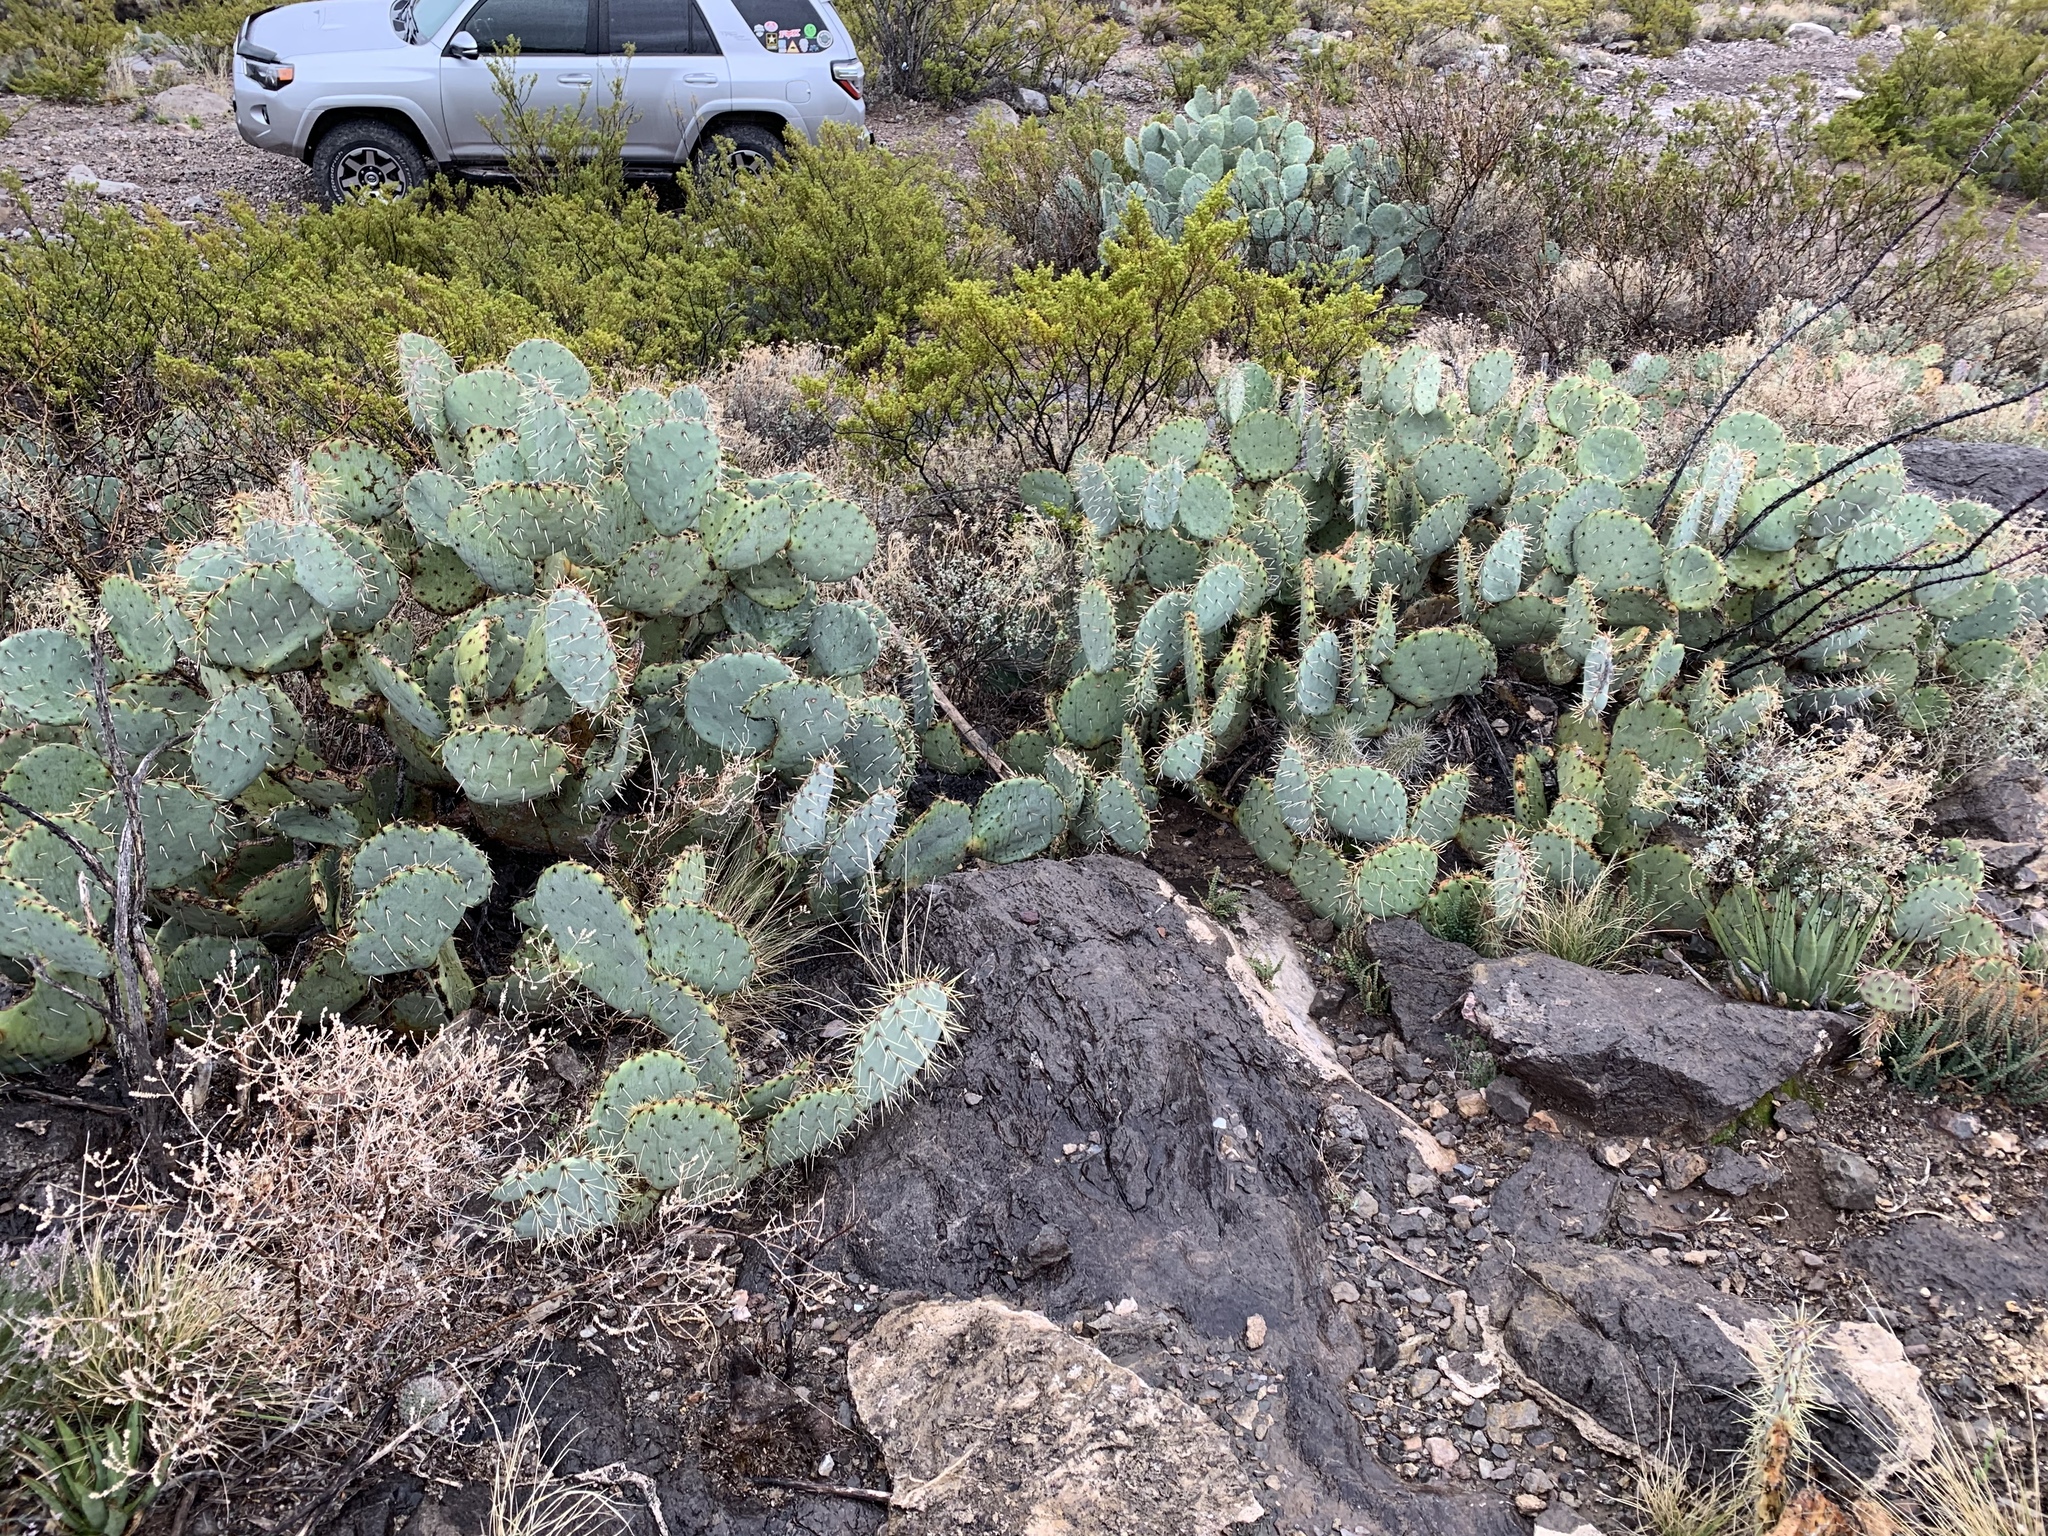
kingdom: Plantae
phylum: Tracheophyta
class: Magnoliopsida
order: Caryophyllales
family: Cactaceae
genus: Opuntia
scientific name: Opuntia engelmannii
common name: Cactus-apple
